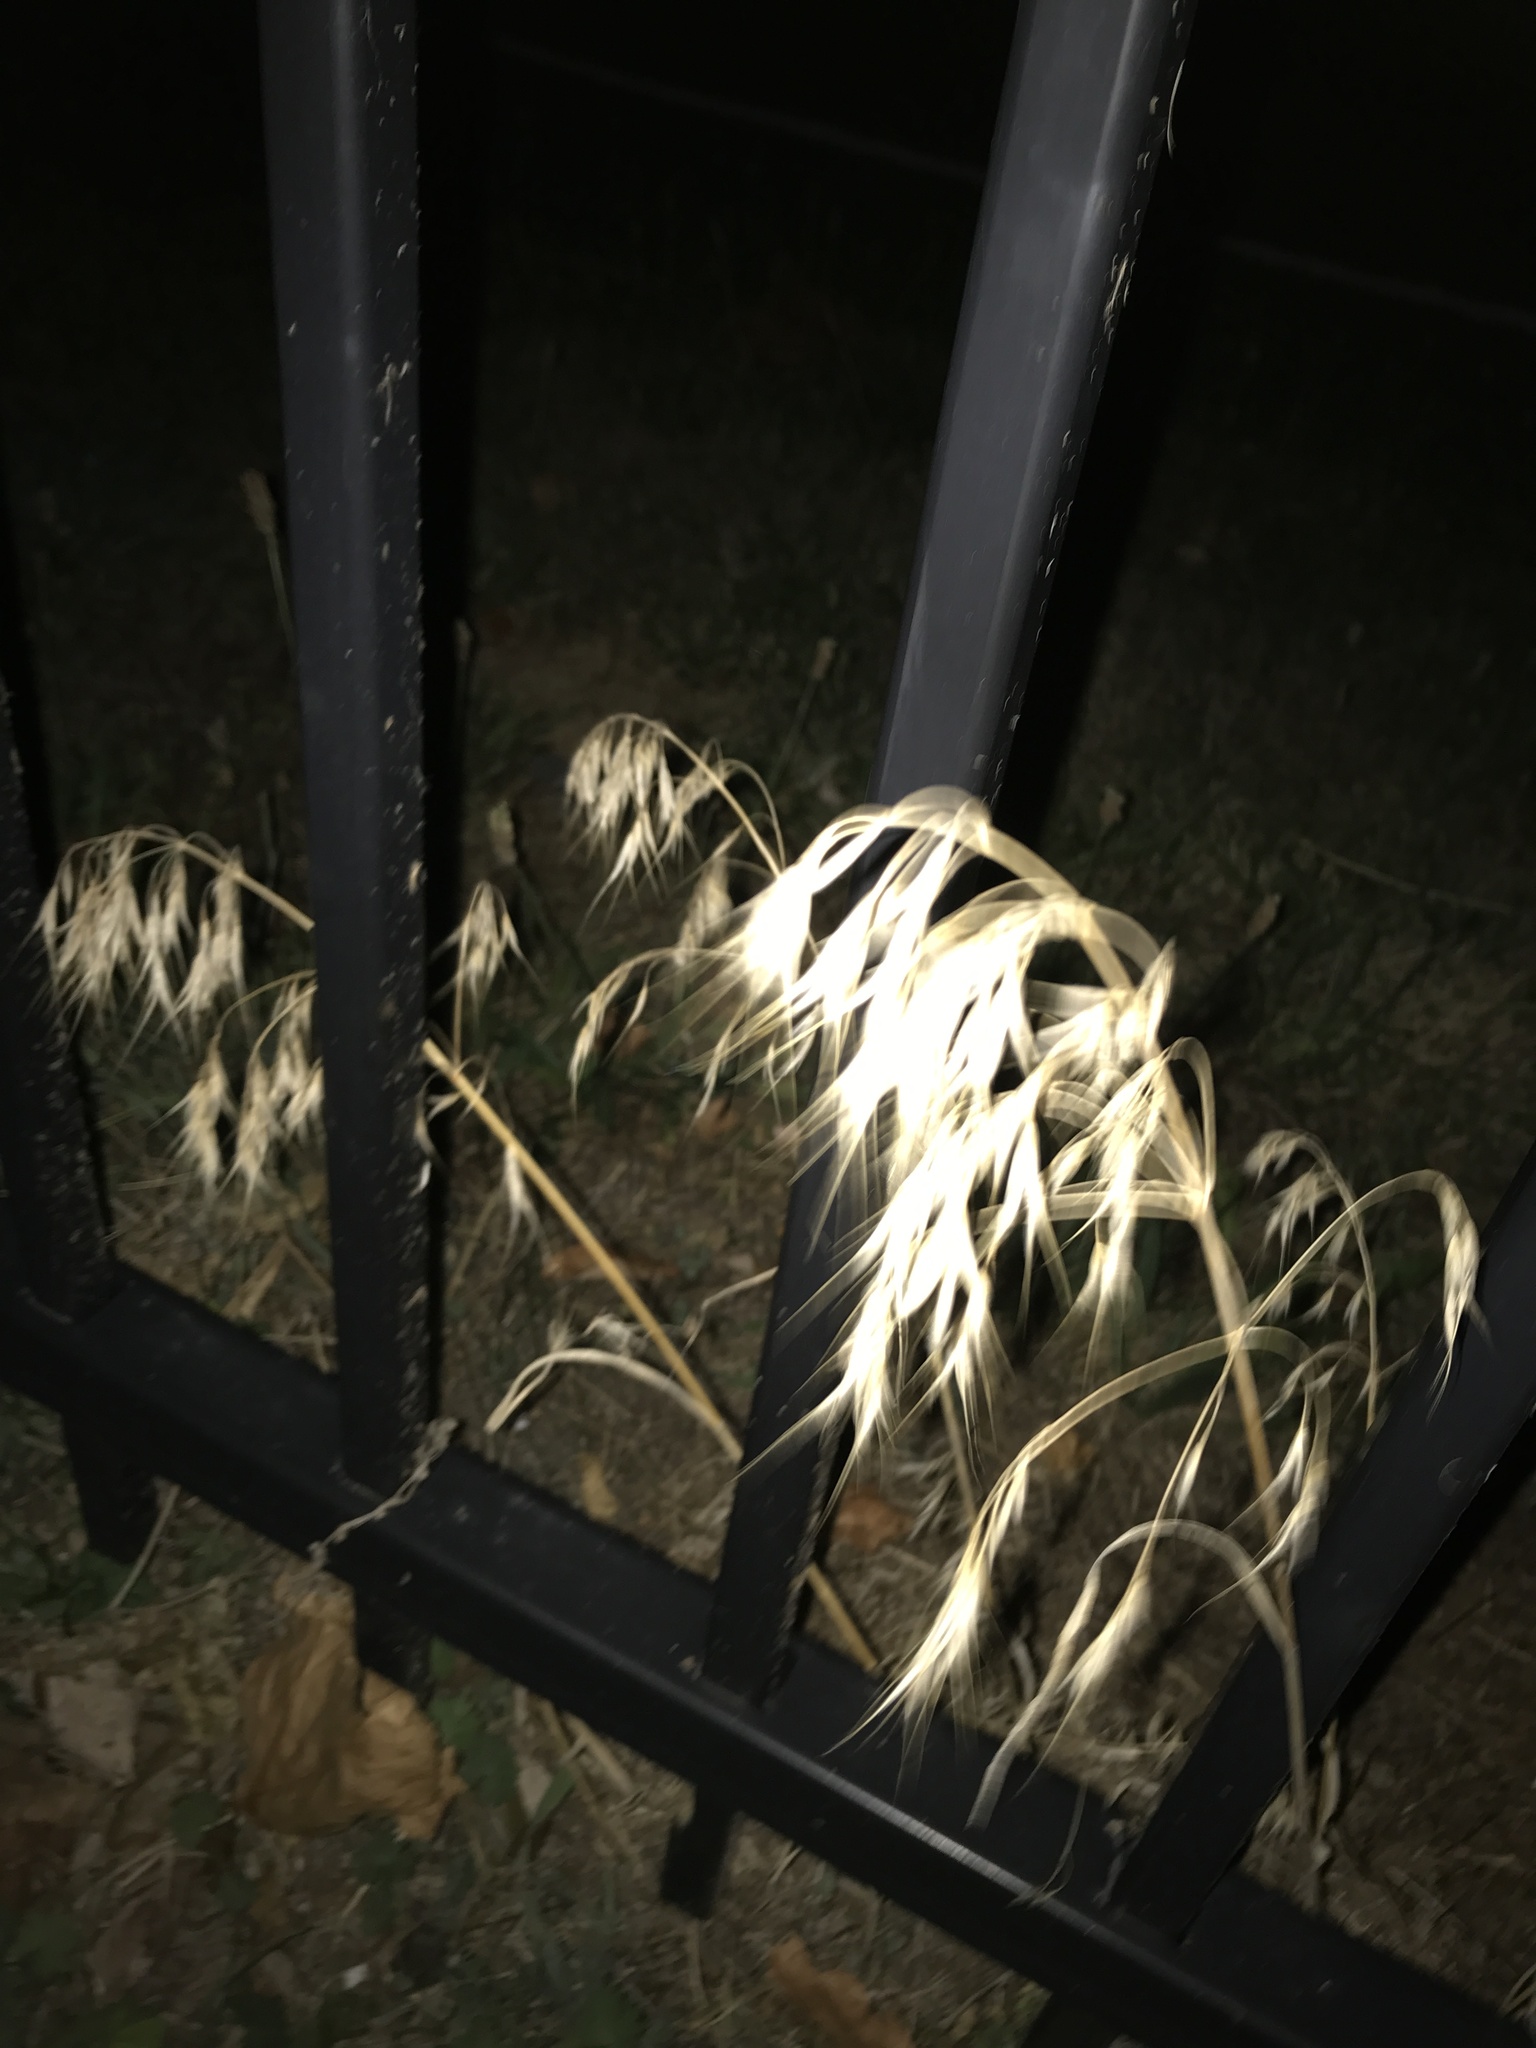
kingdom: Plantae
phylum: Tracheophyta
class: Liliopsida
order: Poales
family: Poaceae
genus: Bromus
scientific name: Bromus tectorum
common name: Cheatgrass
